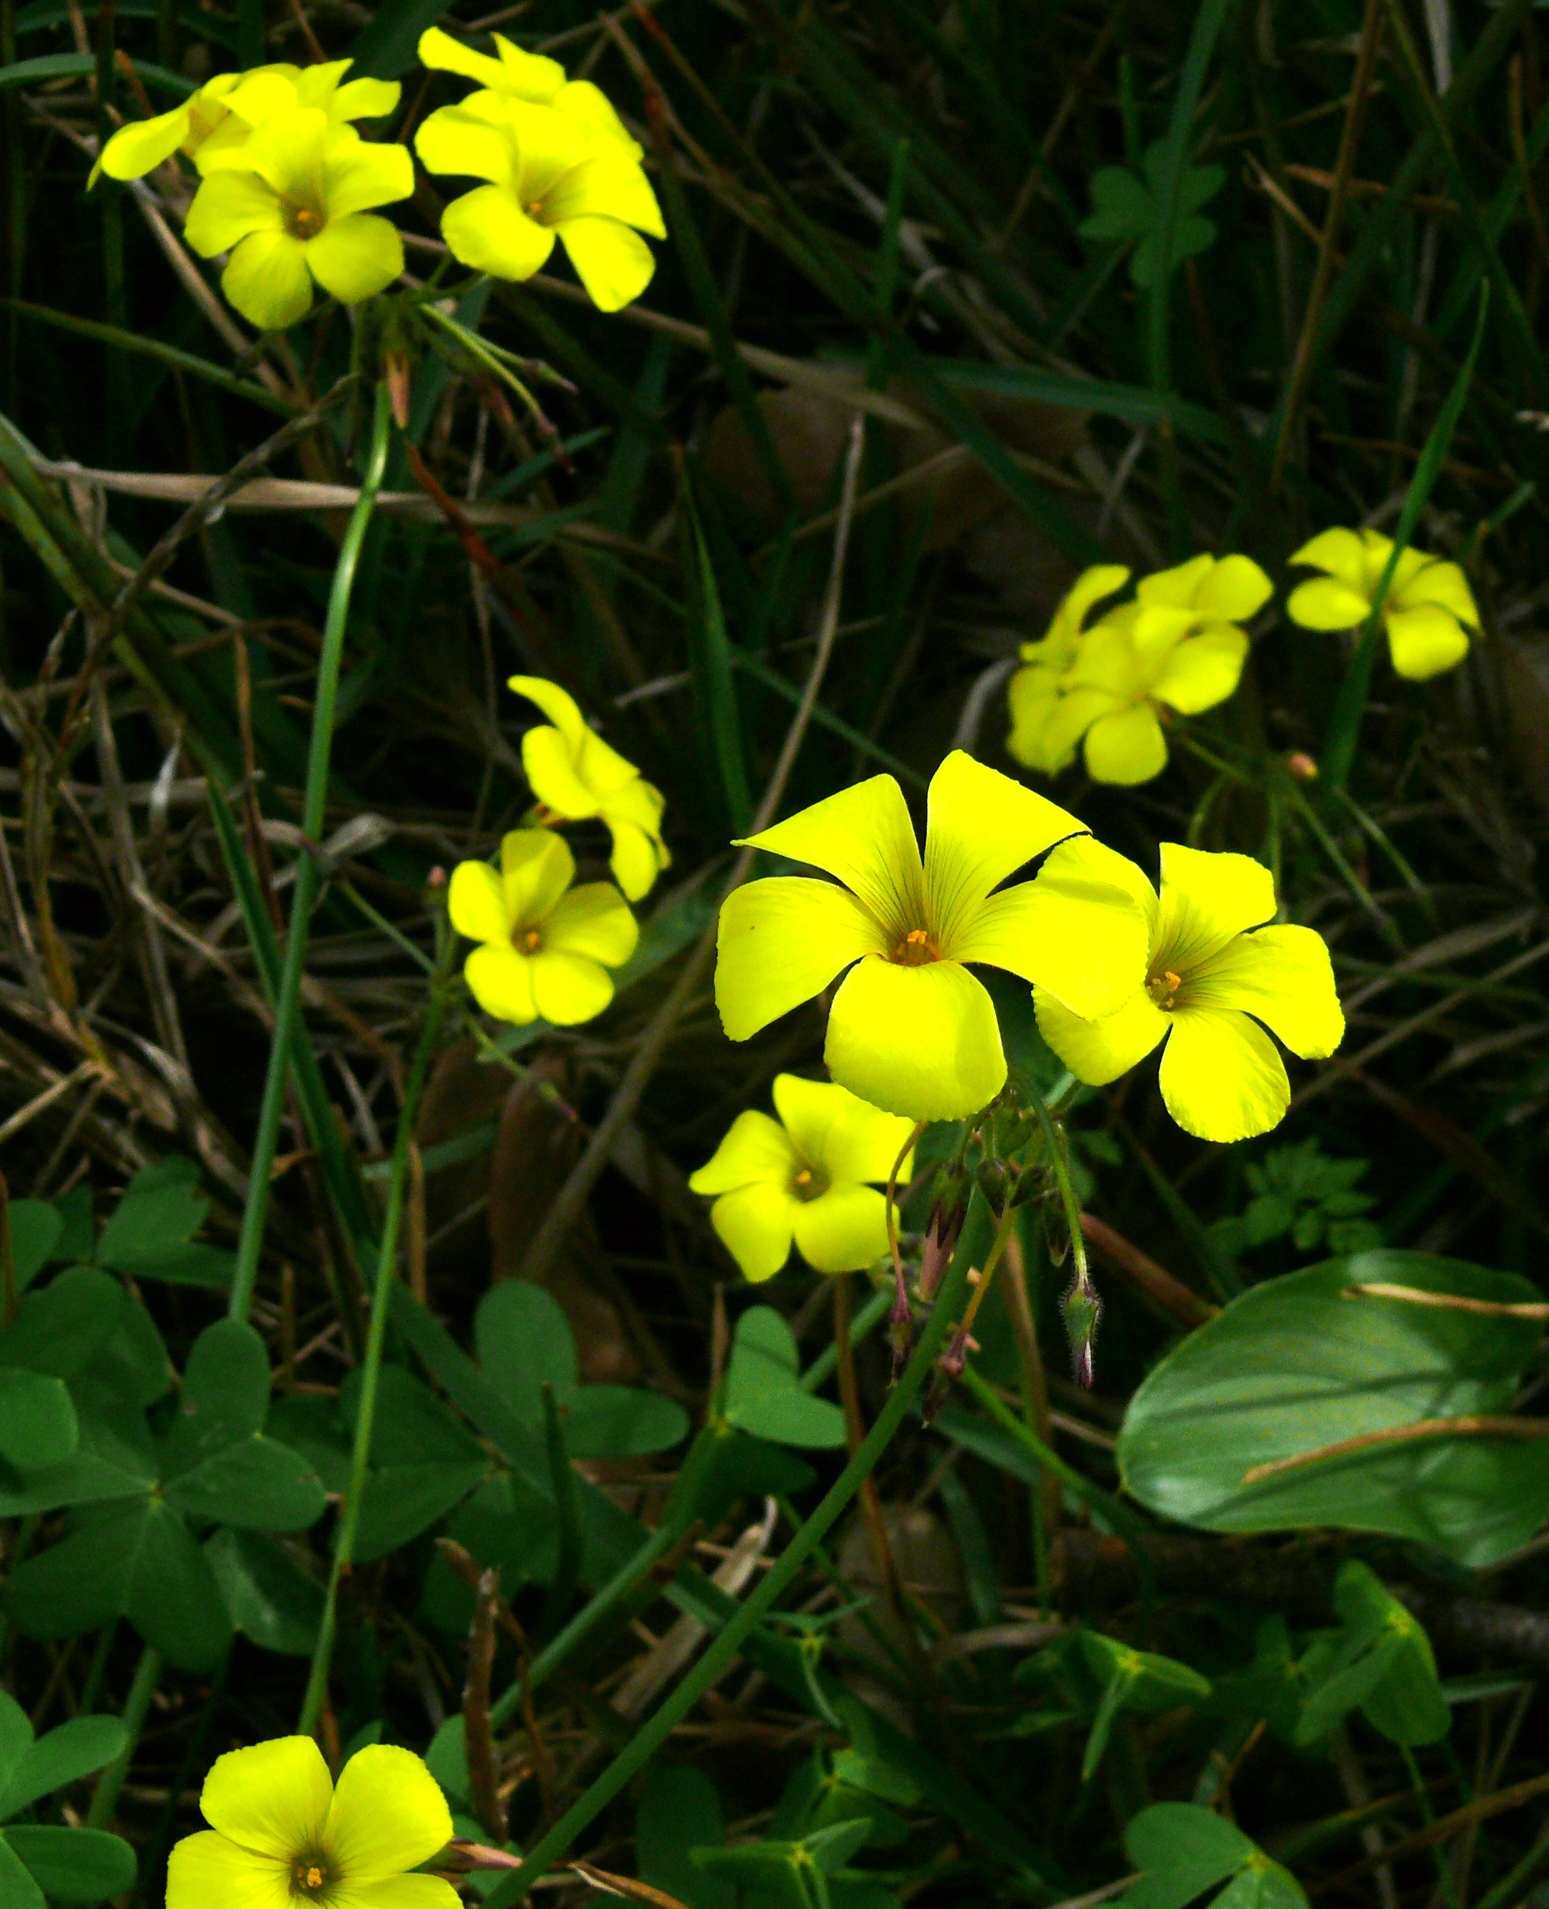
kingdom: Plantae
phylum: Tracheophyta
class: Magnoliopsida
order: Oxalidales
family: Oxalidaceae
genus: Oxalis
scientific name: Oxalis pes-caprae
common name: Bermuda-buttercup
